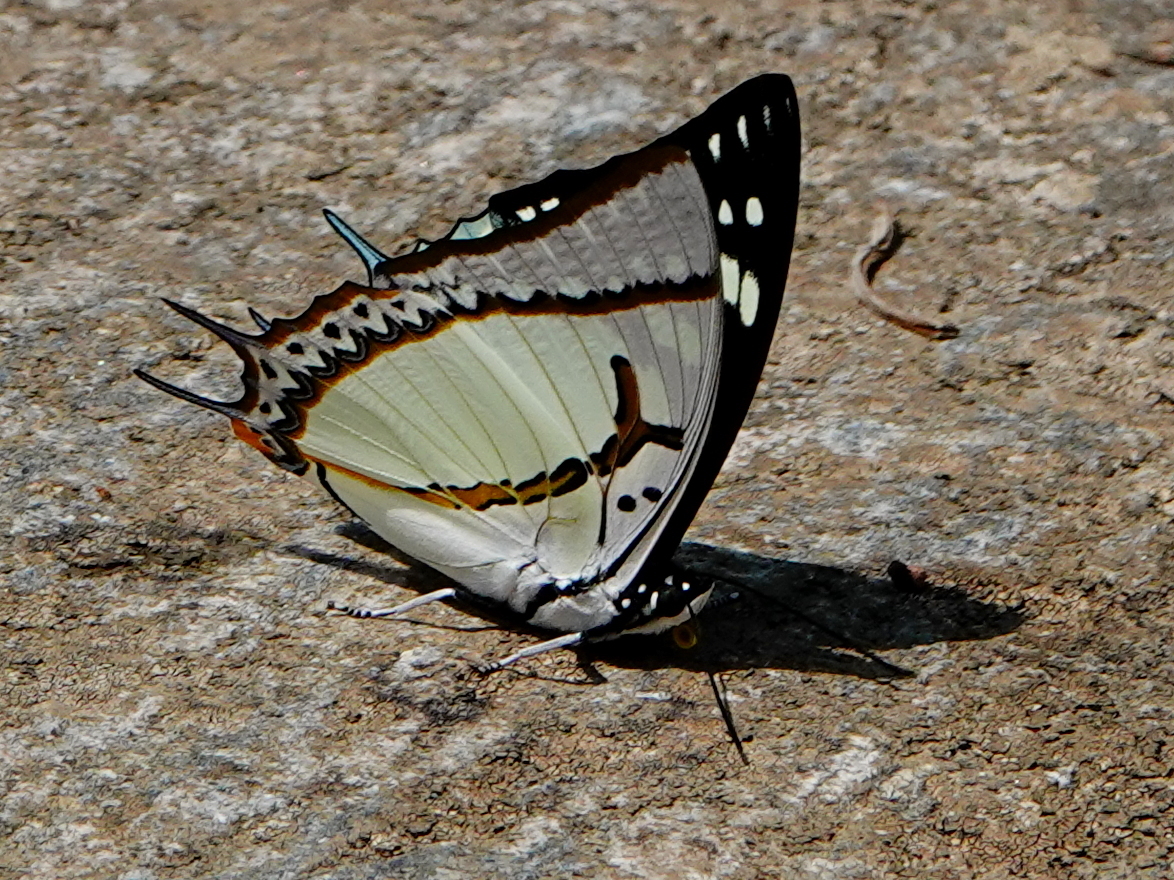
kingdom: Animalia
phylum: Arthropoda
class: Insecta
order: Lepidoptera
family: Nymphalidae
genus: Polyura
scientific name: Polyura eudamippus
